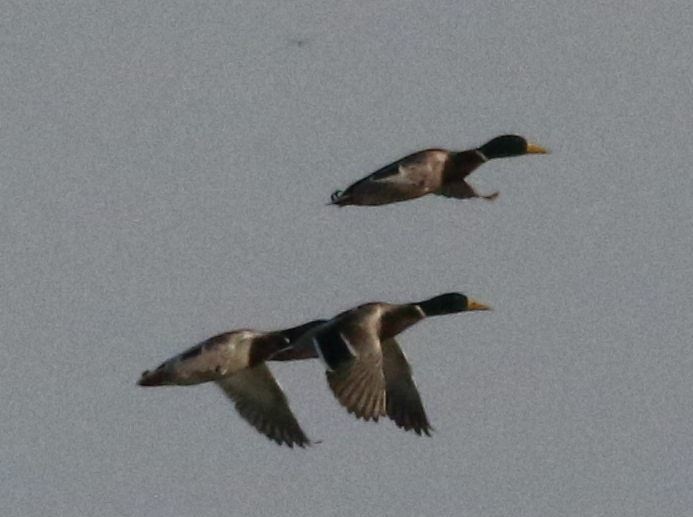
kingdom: Animalia
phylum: Chordata
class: Aves
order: Anseriformes
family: Anatidae
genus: Anas
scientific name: Anas platyrhynchos
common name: Mallard
